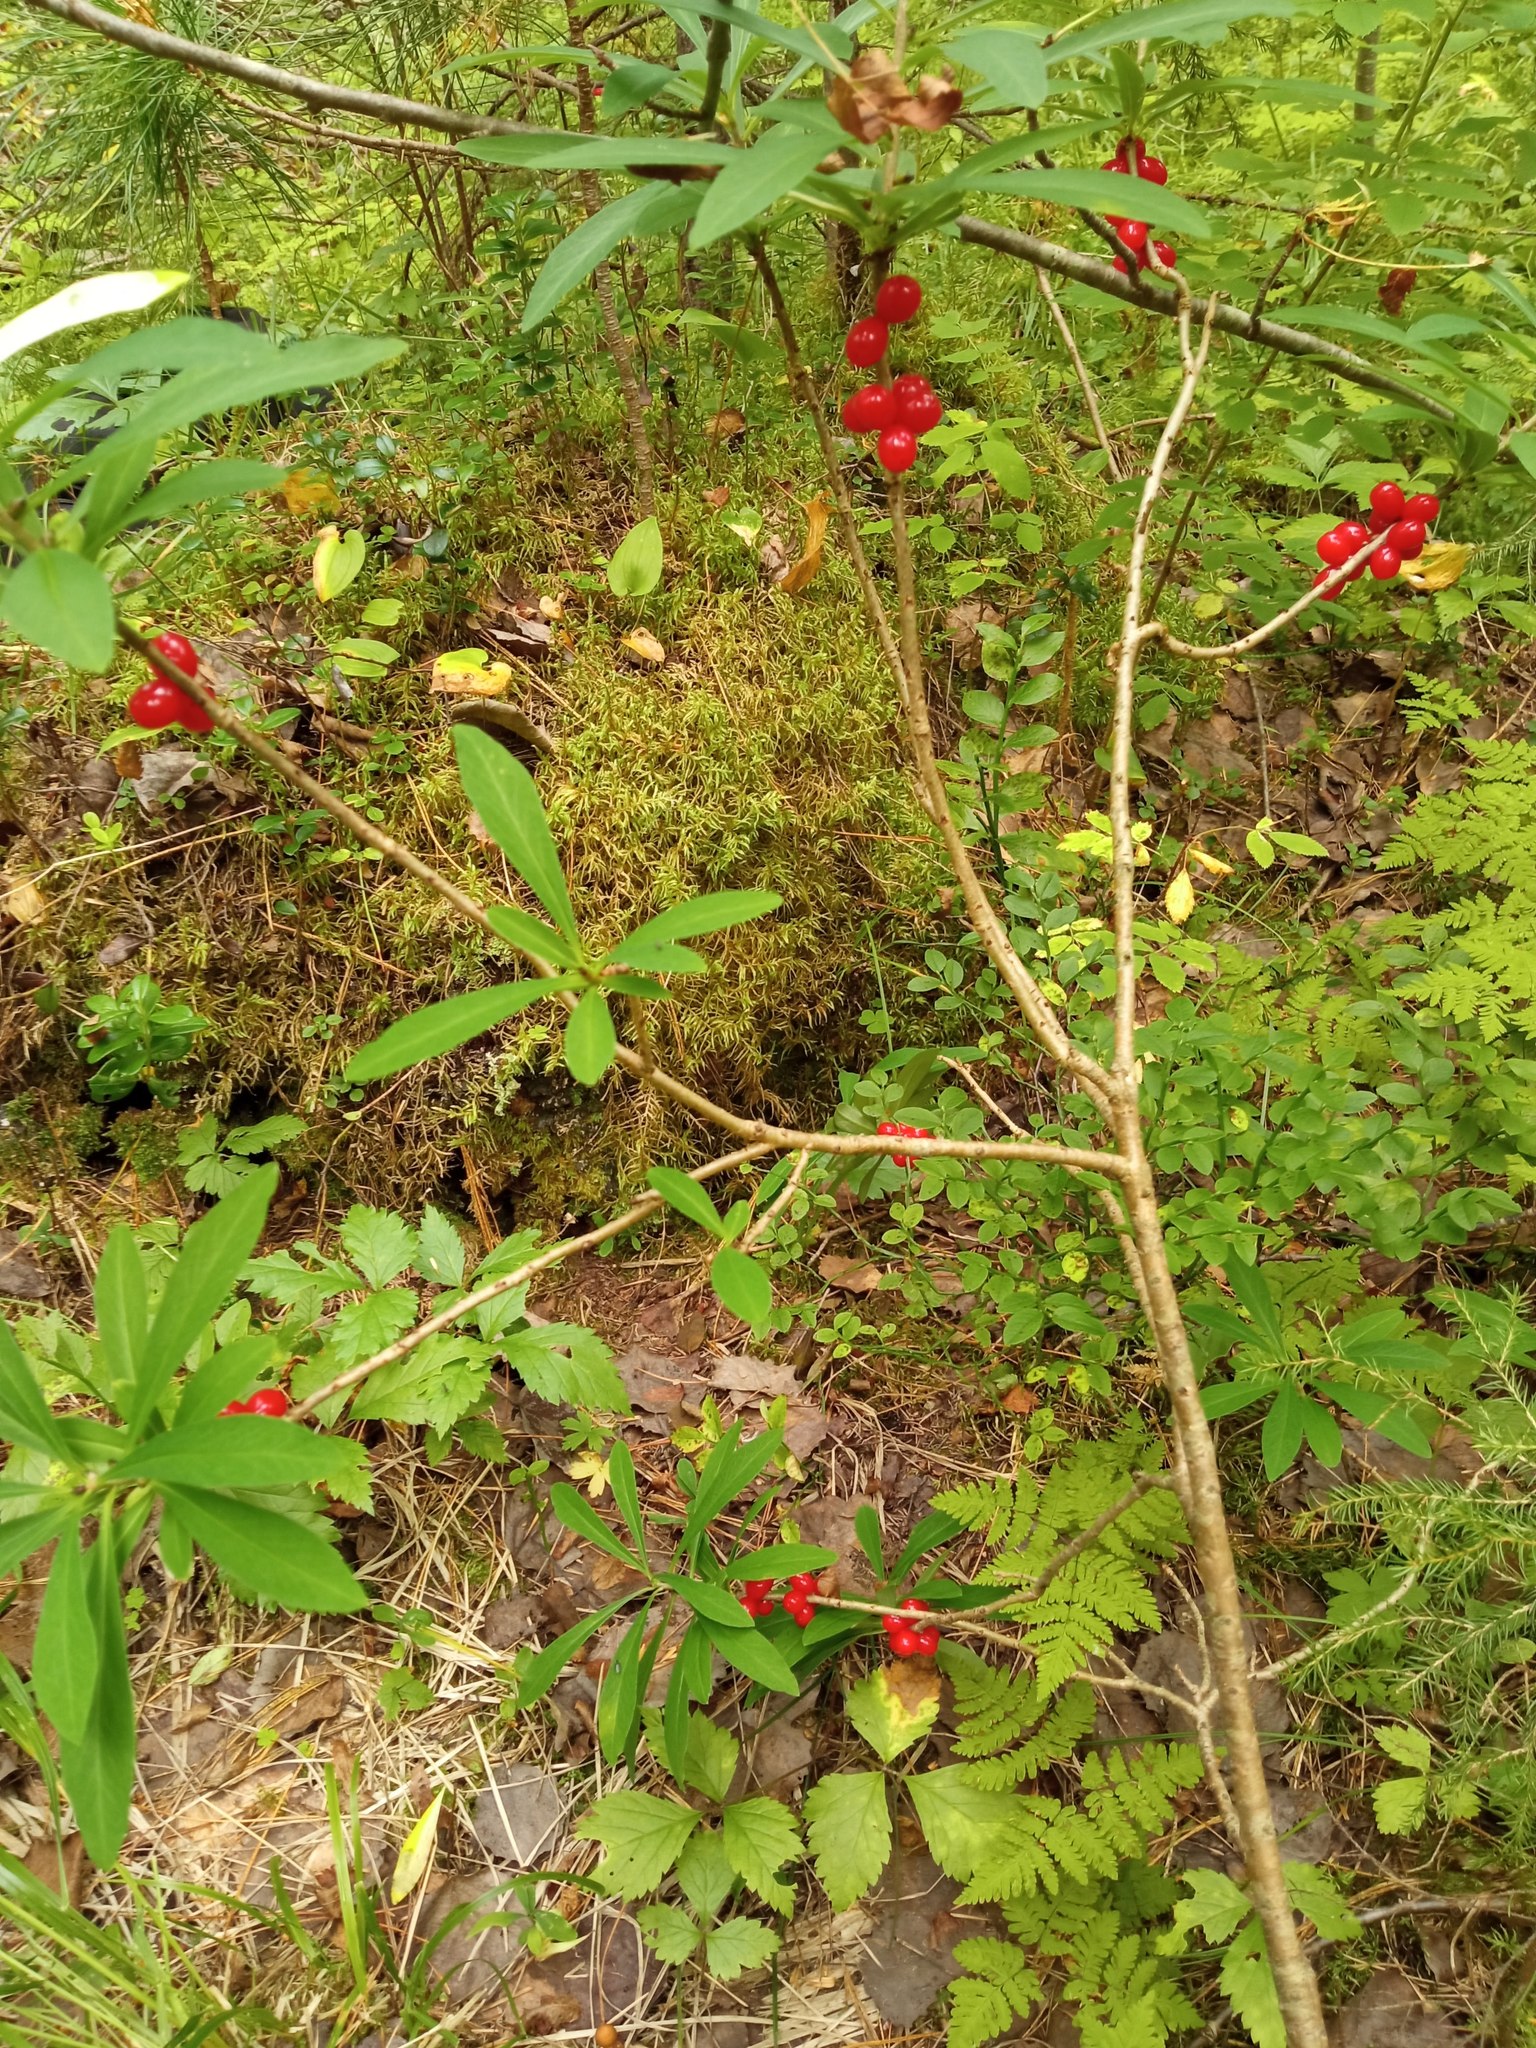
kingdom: Plantae
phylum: Tracheophyta
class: Magnoliopsida
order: Malvales
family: Thymelaeaceae
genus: Daphne
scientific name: Daphne mezereum
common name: Mezereon
